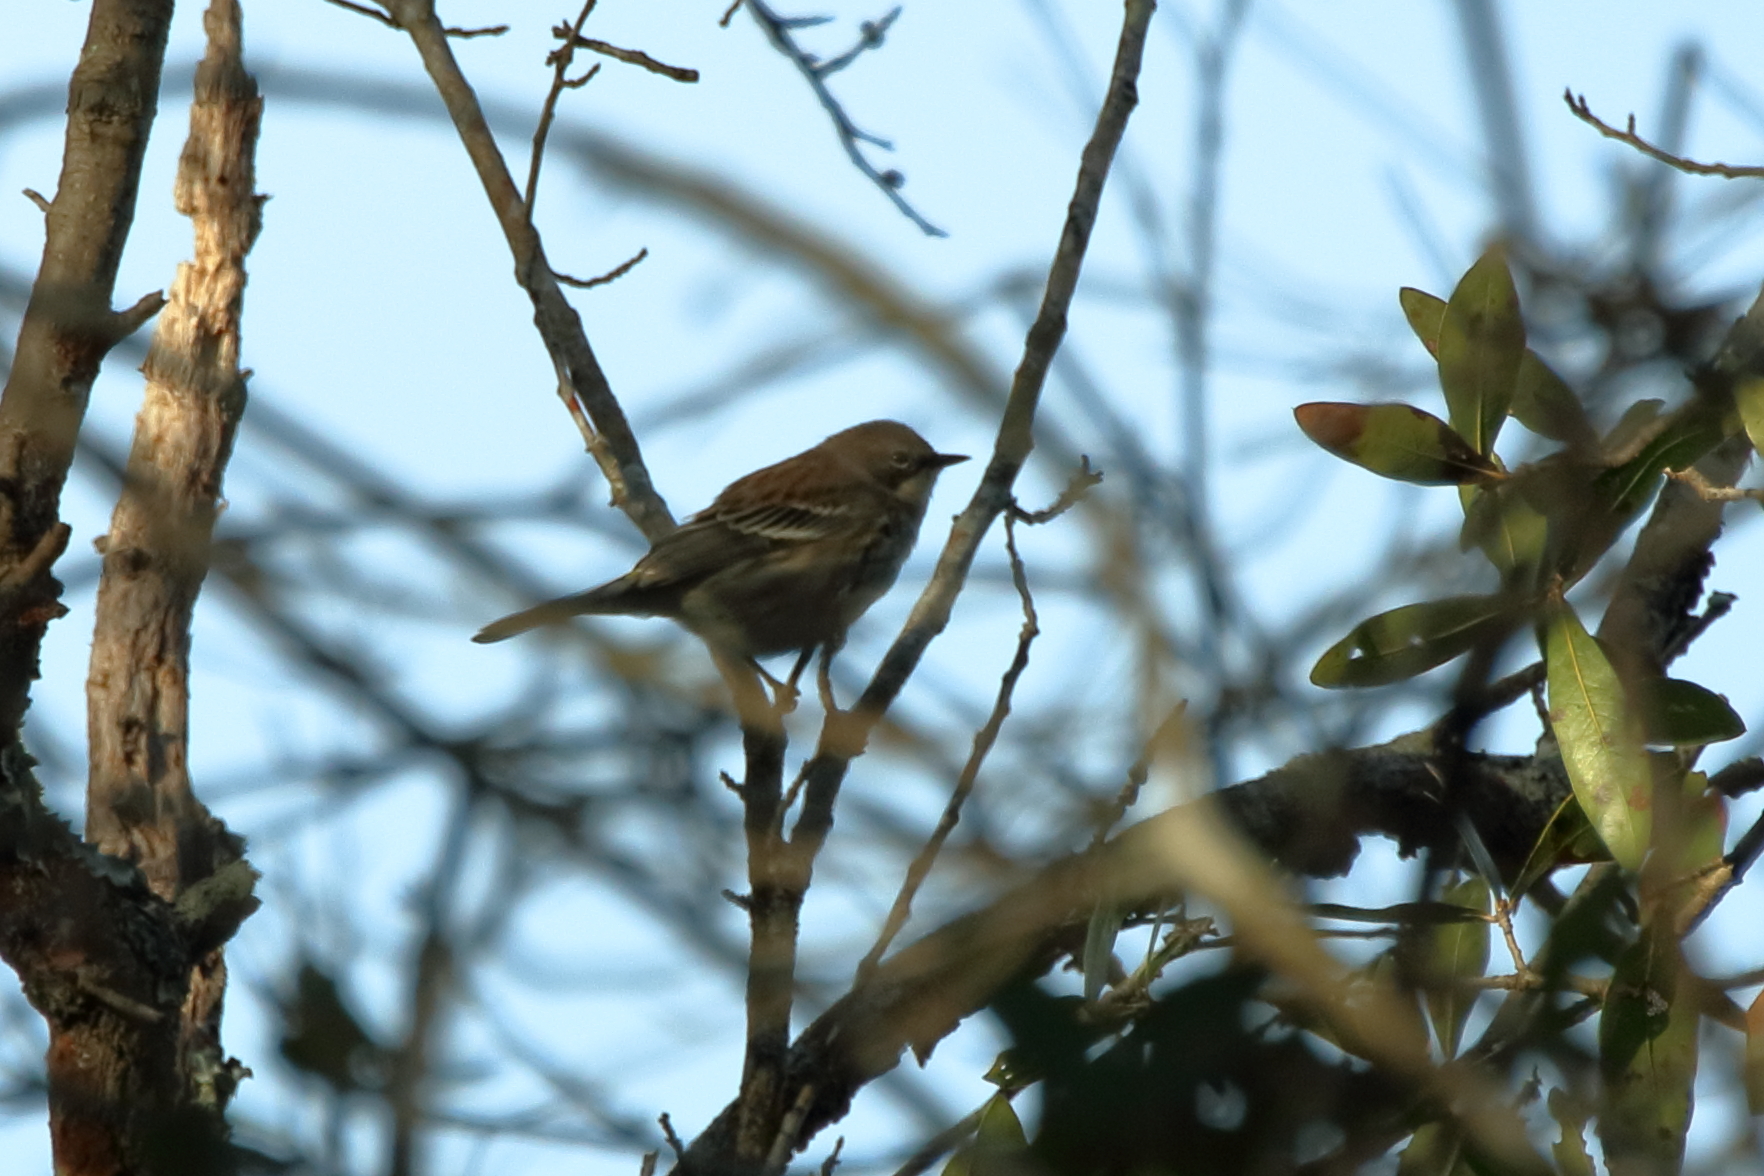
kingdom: Animalia
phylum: Chordata
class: Aves
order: Passeriformes
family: Parulidae
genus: Setophaga
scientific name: Setophaga coronata
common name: Myrtle warbler
